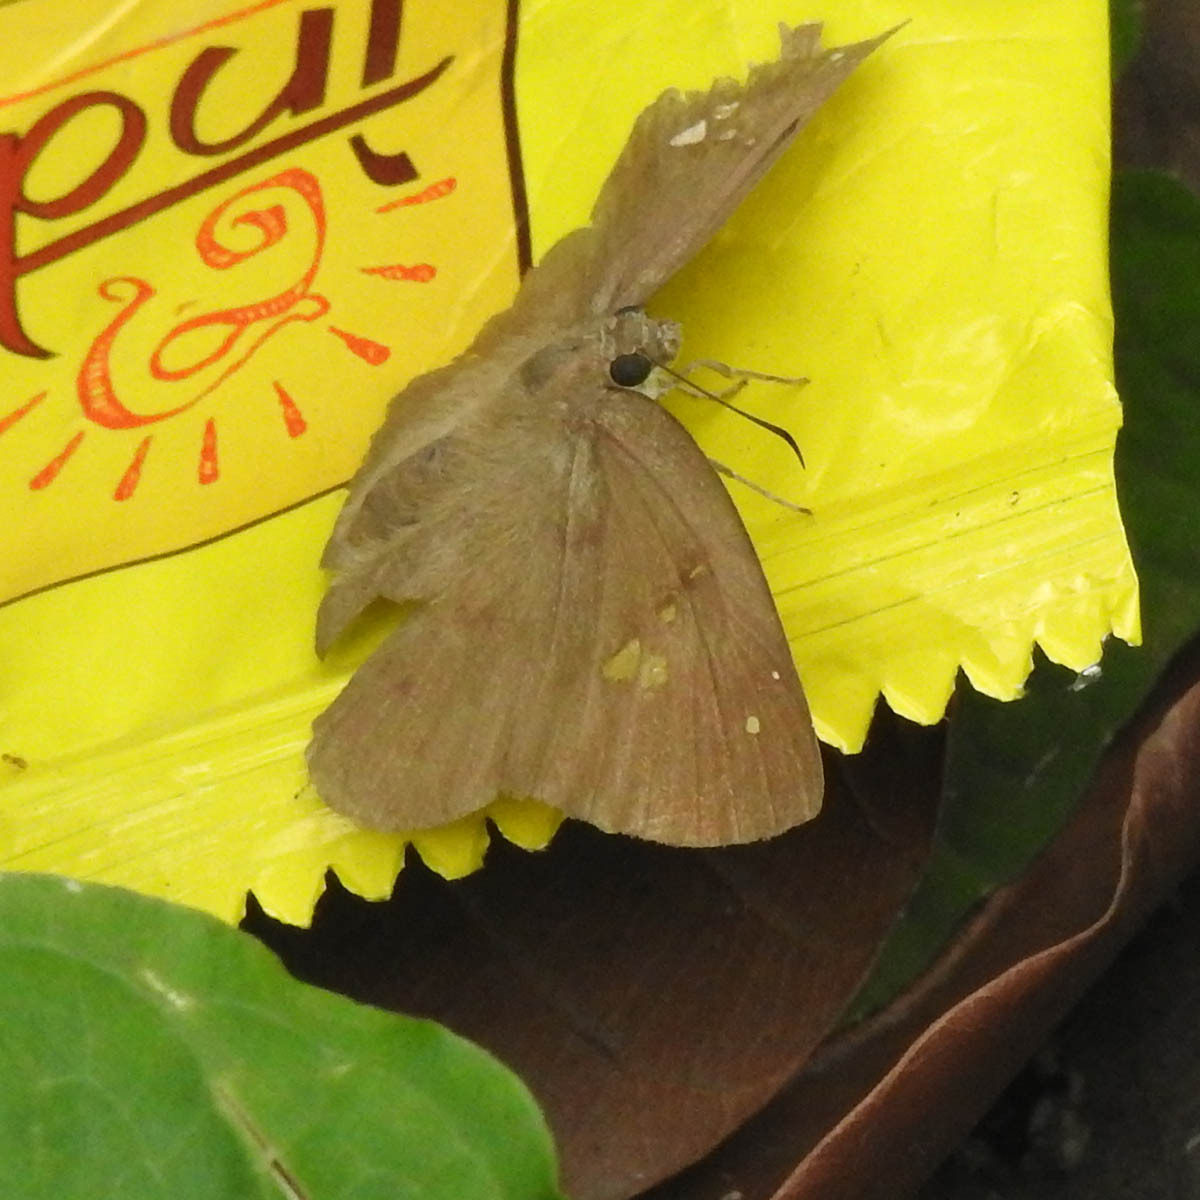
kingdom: Animalia
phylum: Arthropoda
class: Insecta
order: Lepidoptera
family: Hesperiidae
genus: Tagiades
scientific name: Tagiades japetus
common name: Pied flat
